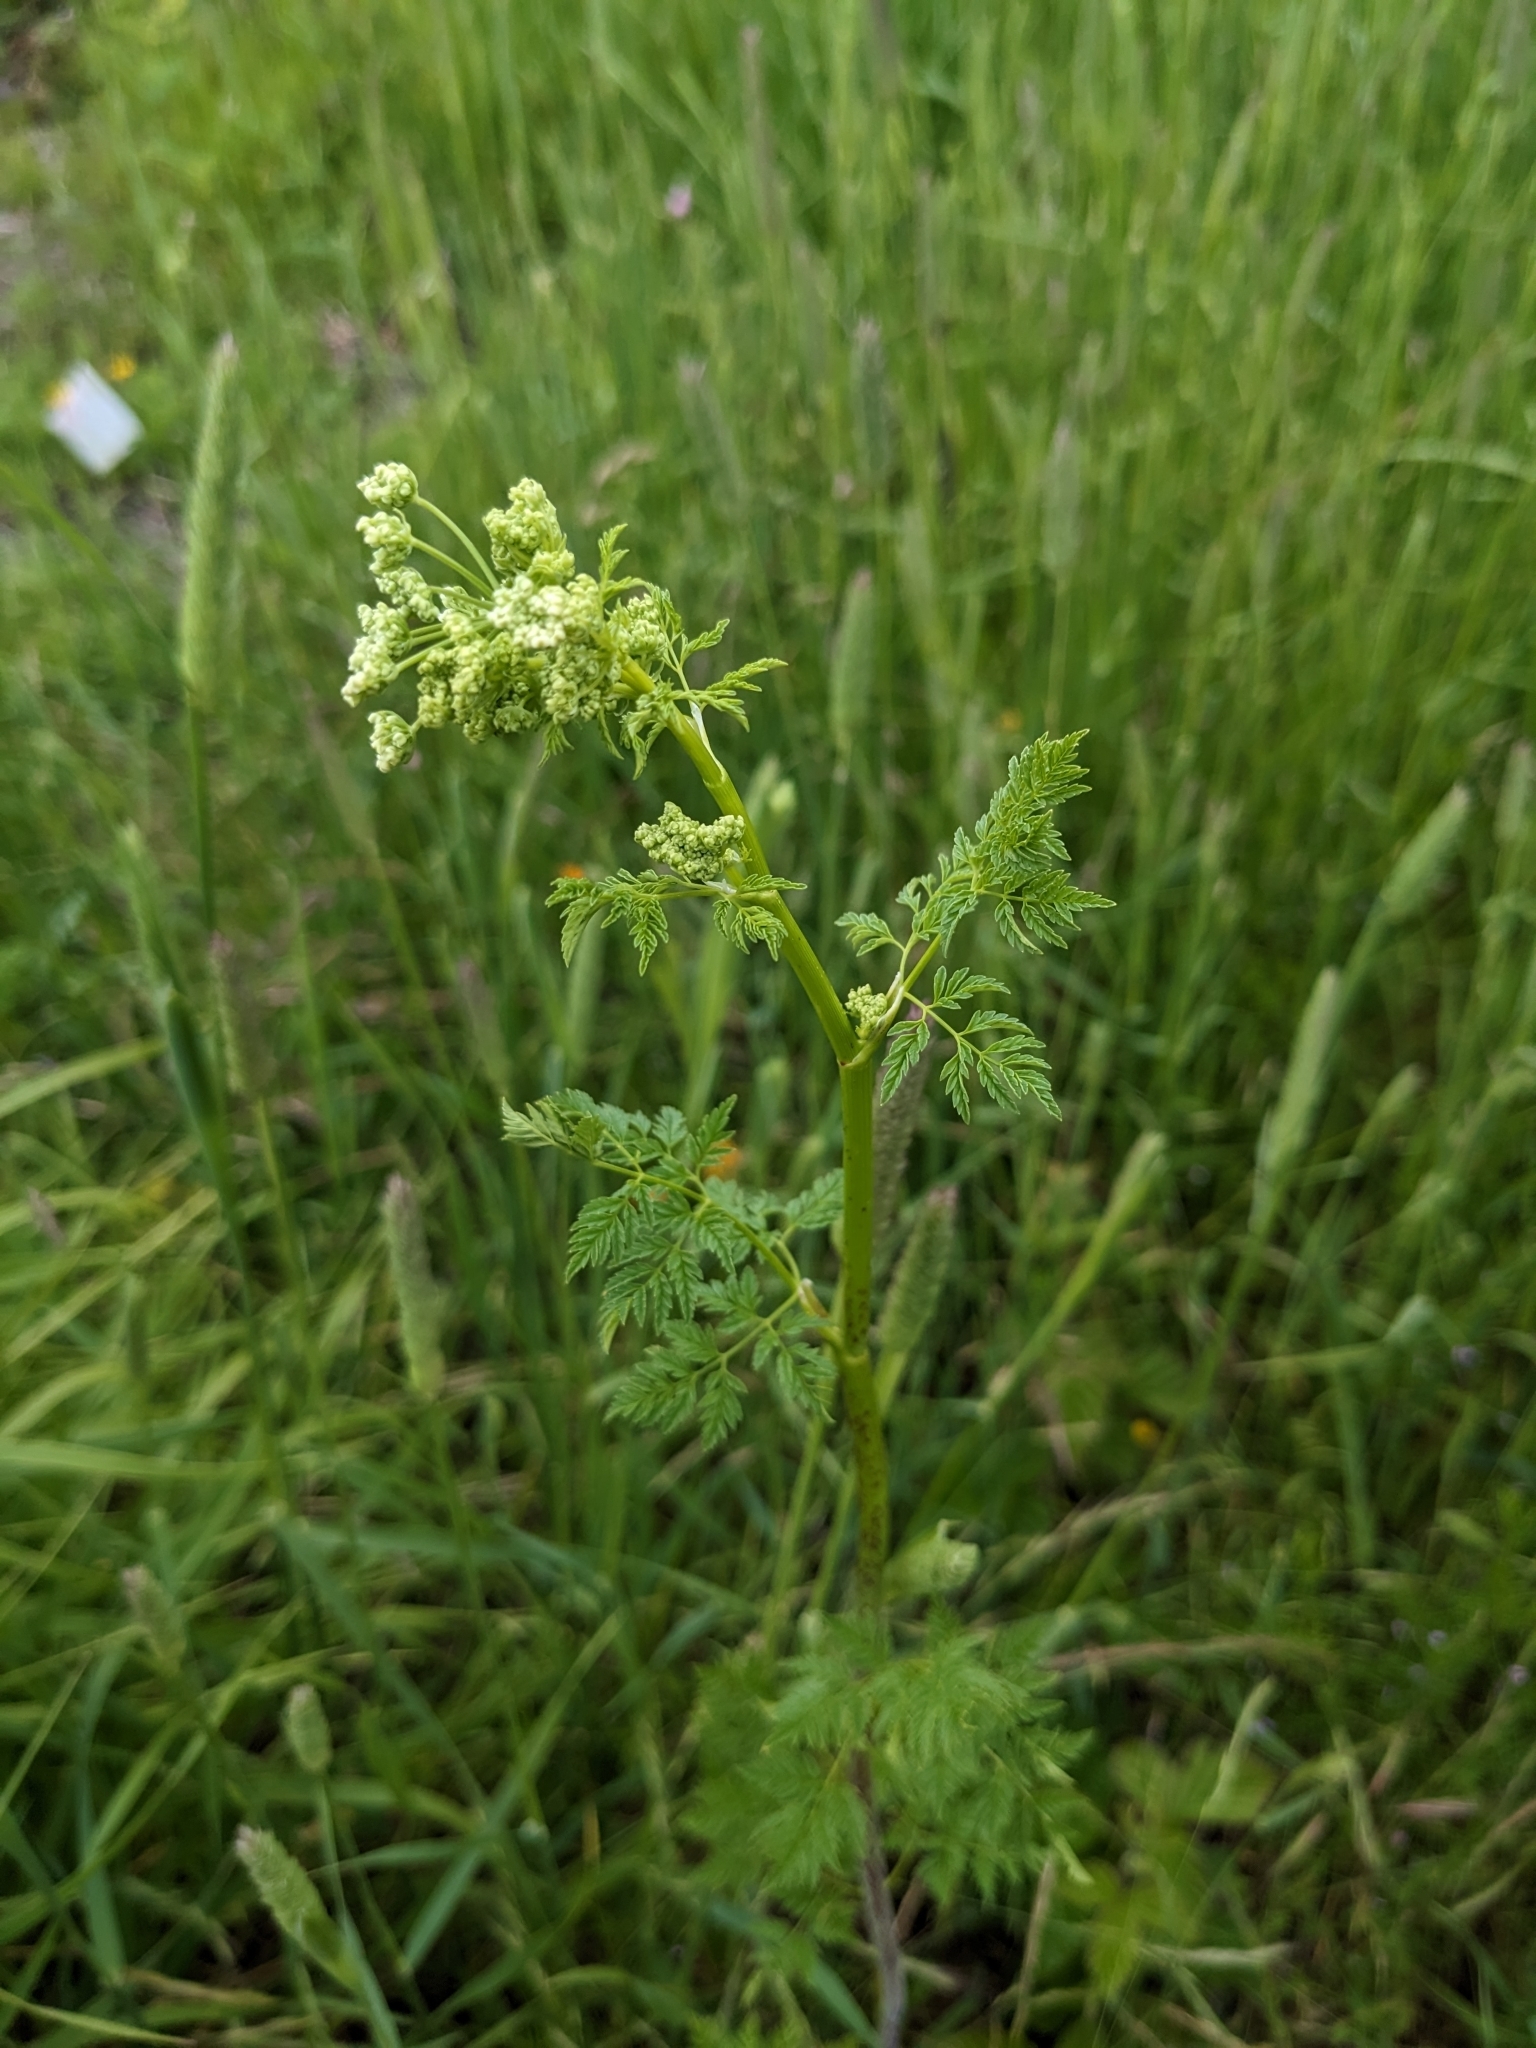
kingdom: Plantae
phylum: Tracheophyta
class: Magnoliopsida
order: Apiales
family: Apiaceae
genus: Conium
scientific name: Conium maculatum
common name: Hemlock
